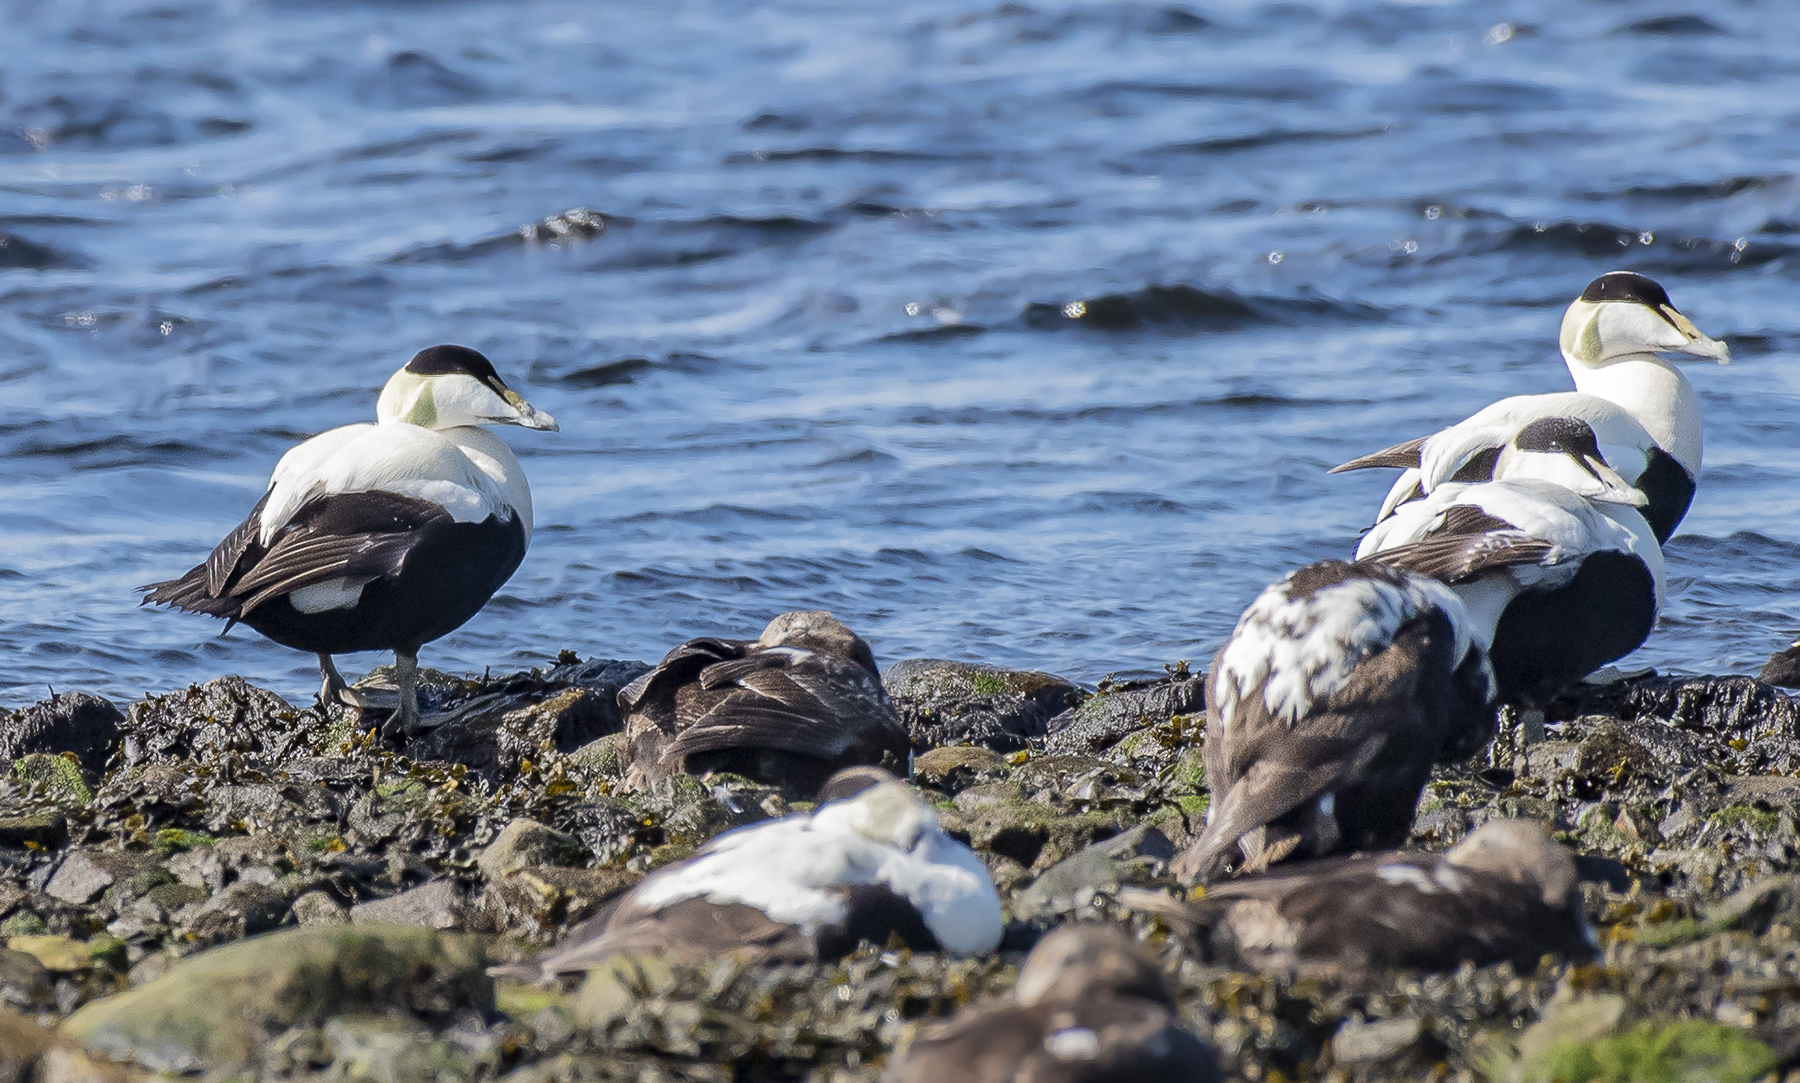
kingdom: Animalia
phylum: Chordata
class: Aves
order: Anseriformes
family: Anatidae
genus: Somateria
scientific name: Somateria mollissima
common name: Common eider
